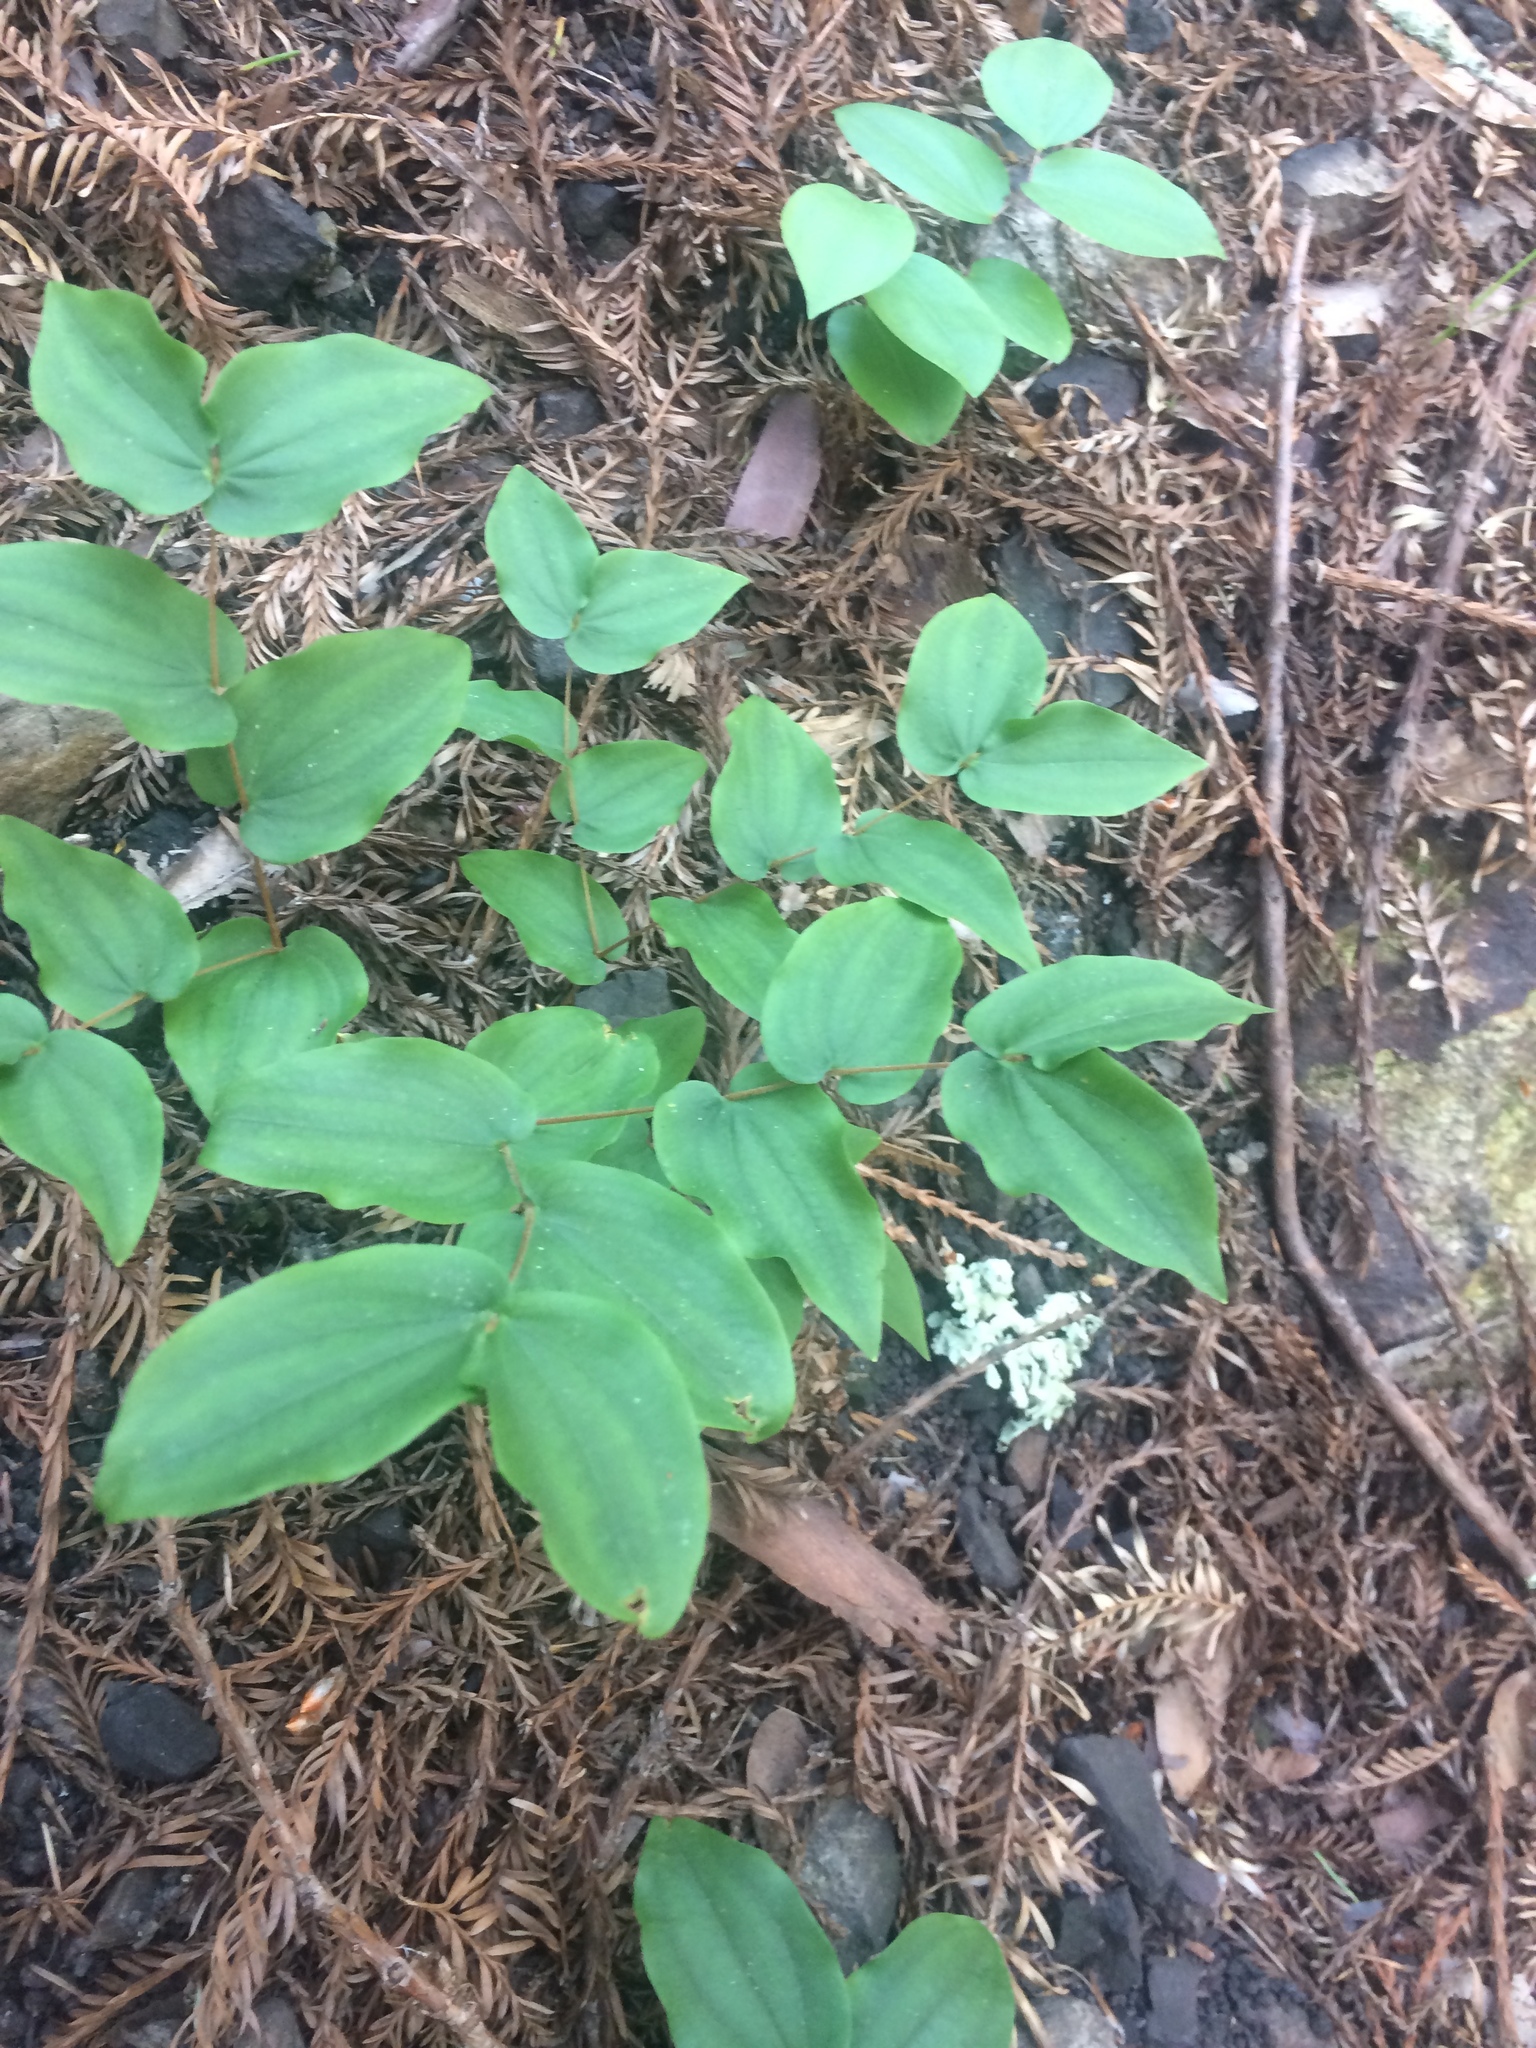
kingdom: Plantae
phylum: Tracheophyta
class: Liliopsida
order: Liliales
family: Liliaceae
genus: Prosartes
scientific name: Prosartes hookeri
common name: Fairy-bells
